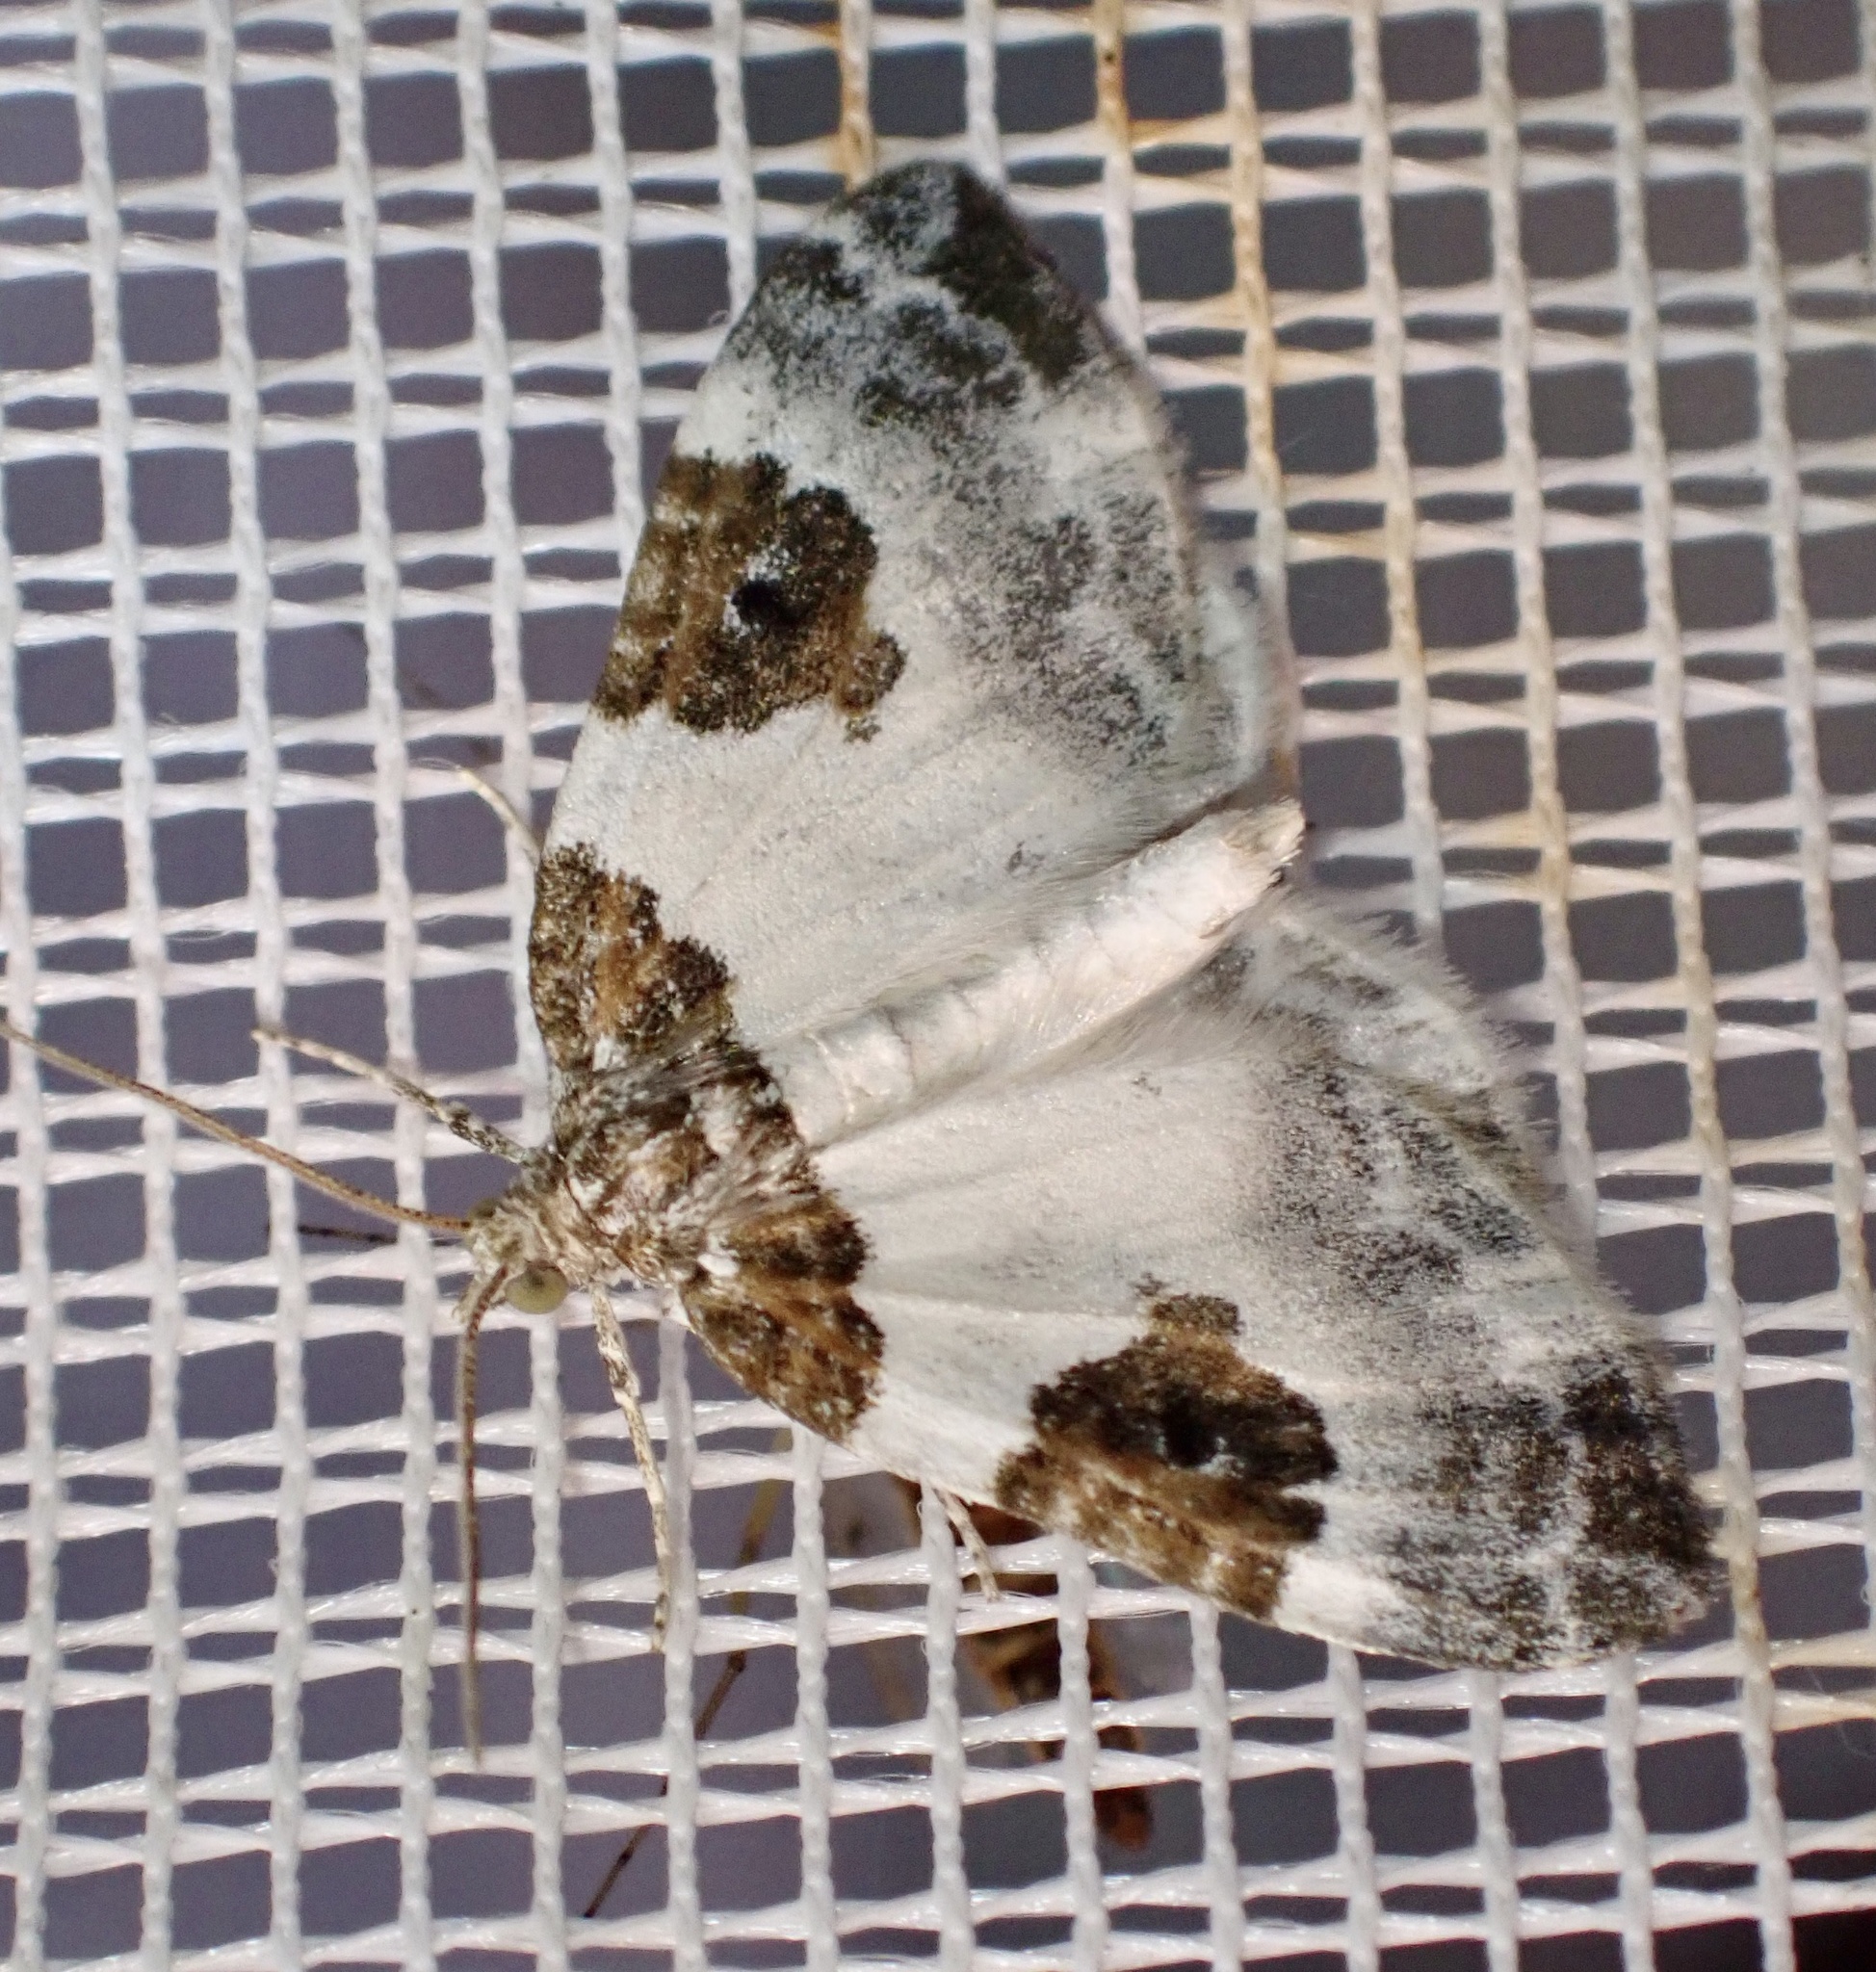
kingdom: Animalia
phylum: Arthropoda
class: Insecta
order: Lepidoptera
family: Geometridae
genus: Plemyria
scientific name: Plemyria rubiginata
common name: Blue-bordered carpet
